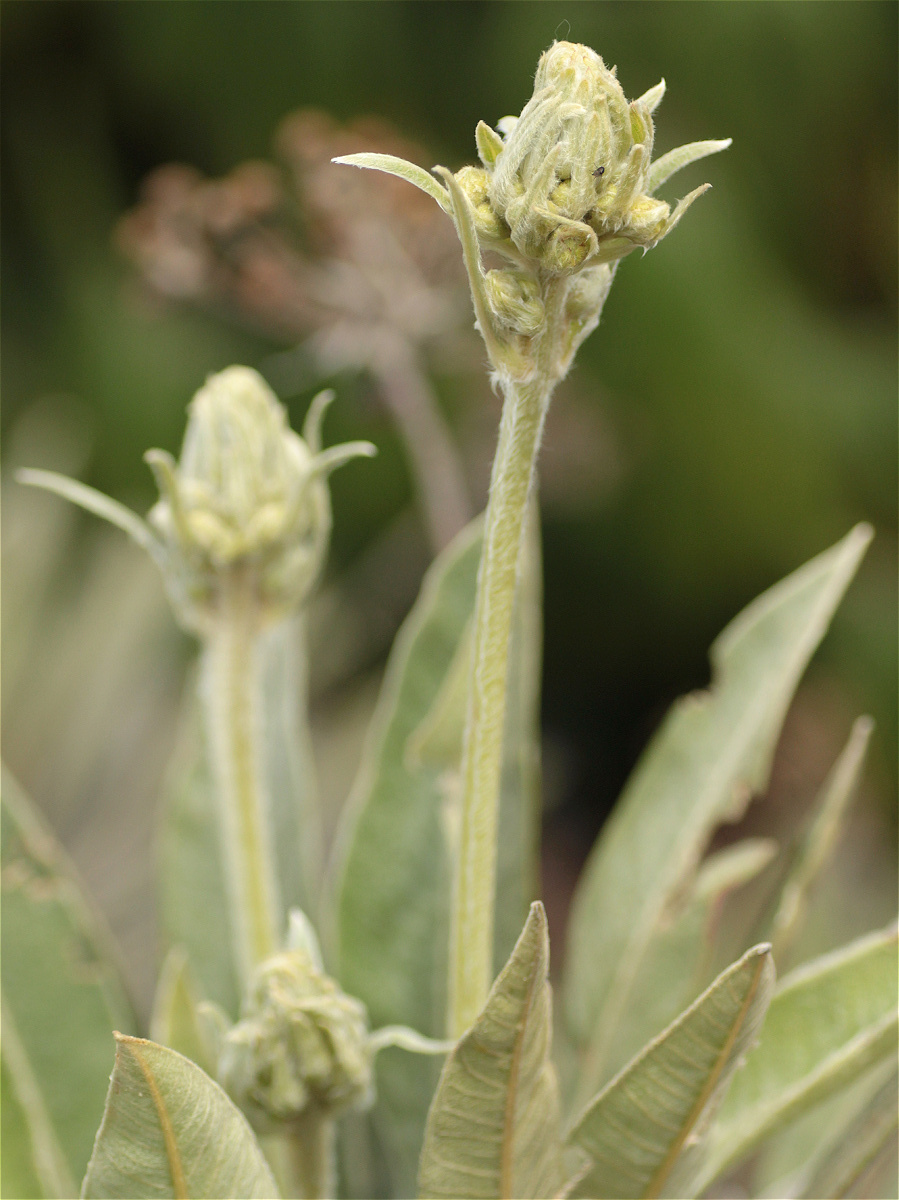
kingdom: Plantae
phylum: Tracheophyta
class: Magnoliopsida
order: Asterales
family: Asteraceae
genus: Espeletia
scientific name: Espeletia corymbosa
